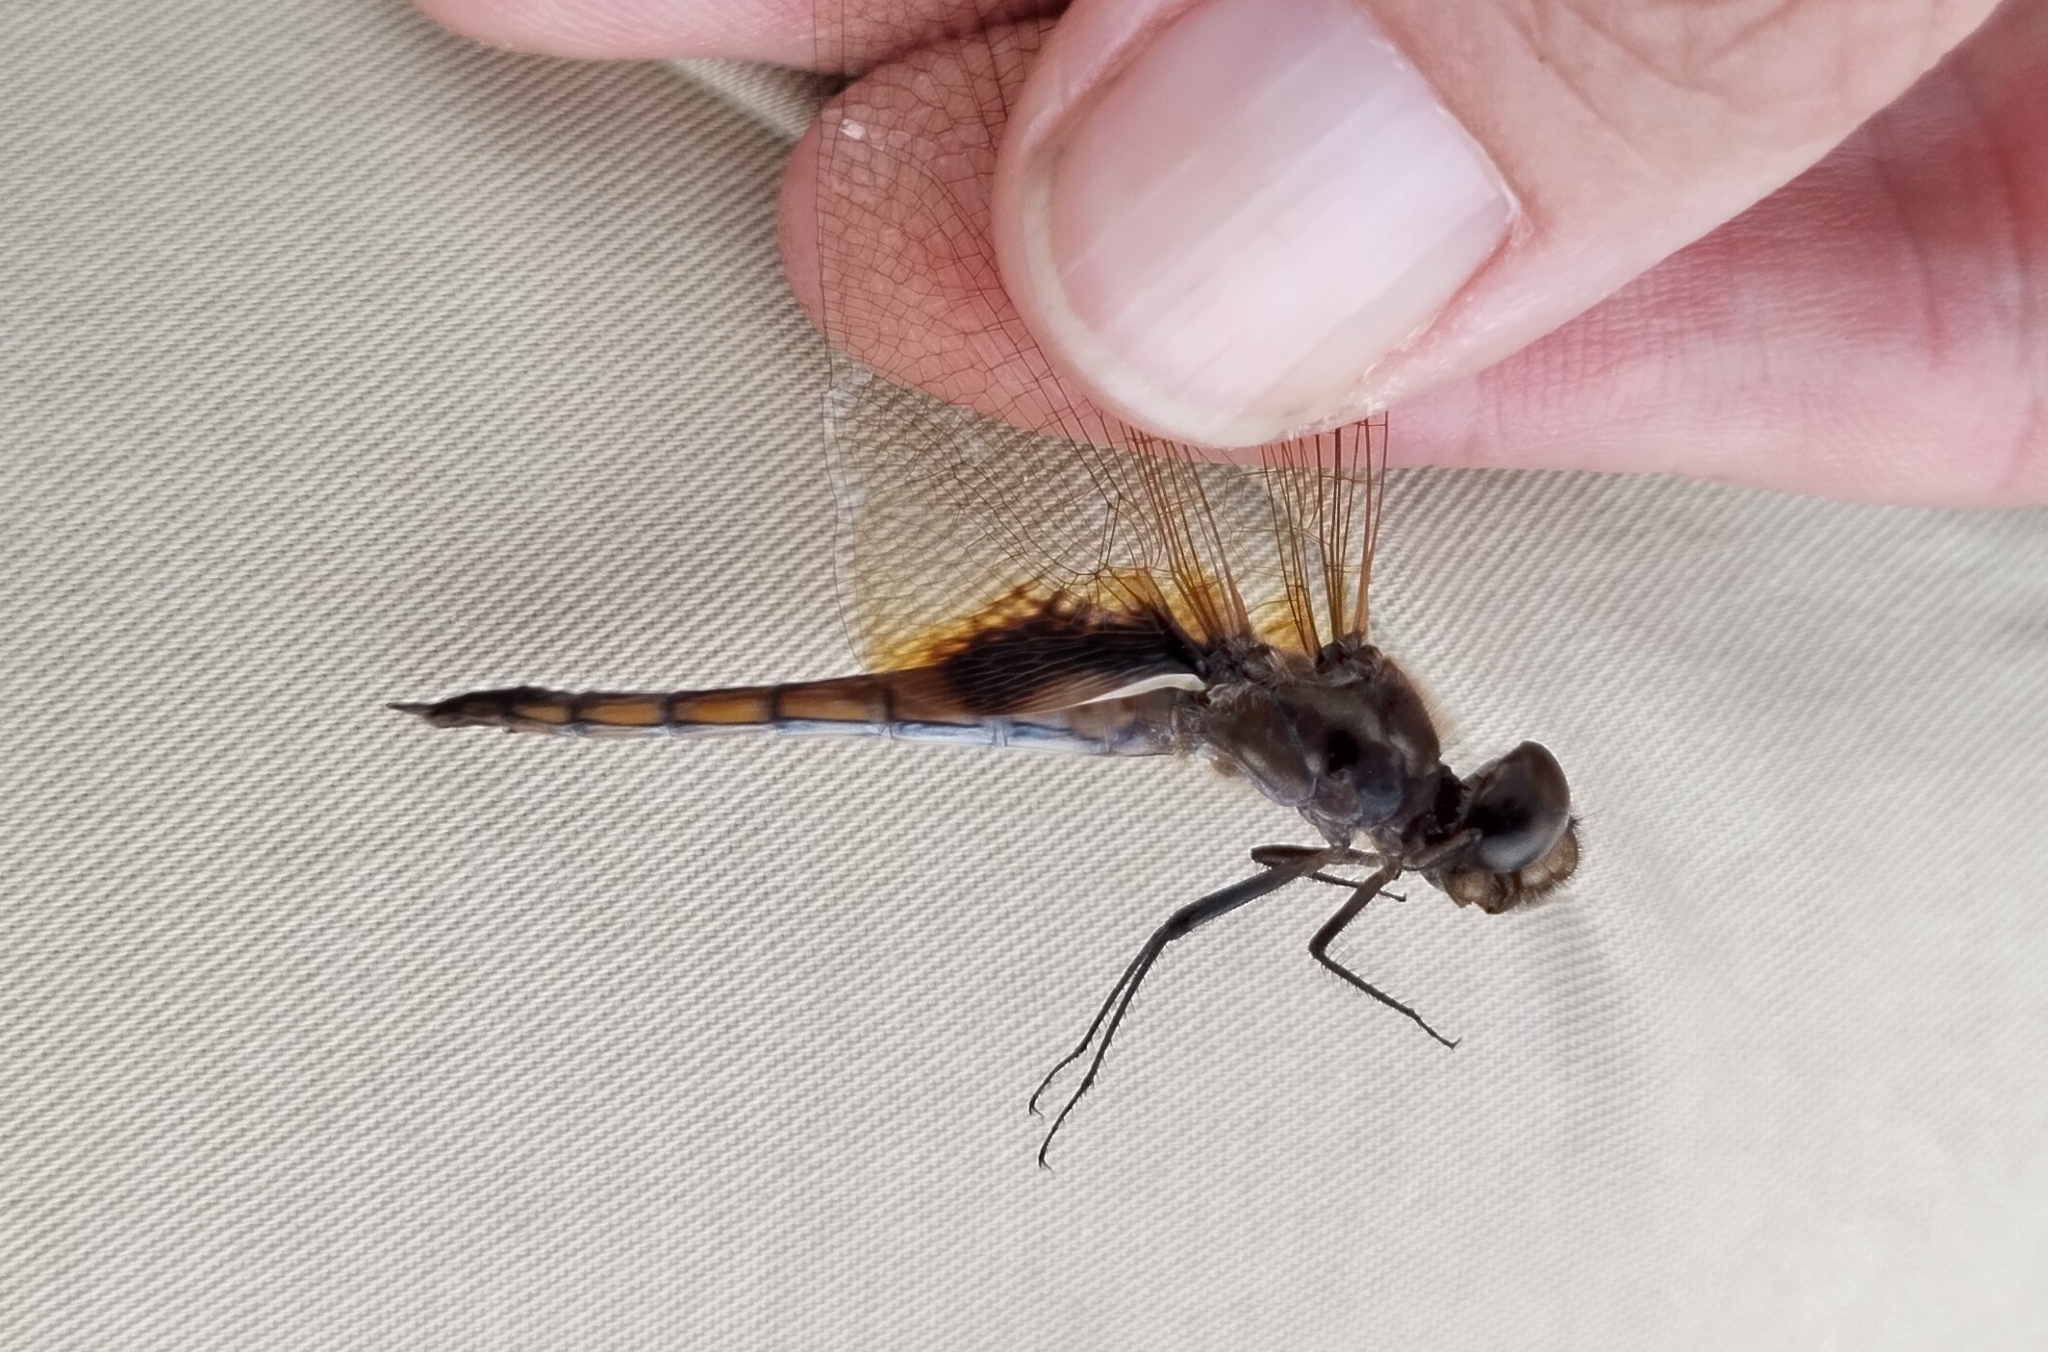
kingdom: Animalia
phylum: Arthropoda
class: Insecta
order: Odonata
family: Libellulidae
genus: Miathyria
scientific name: Miathyria marcella
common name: Hyacinth glider
